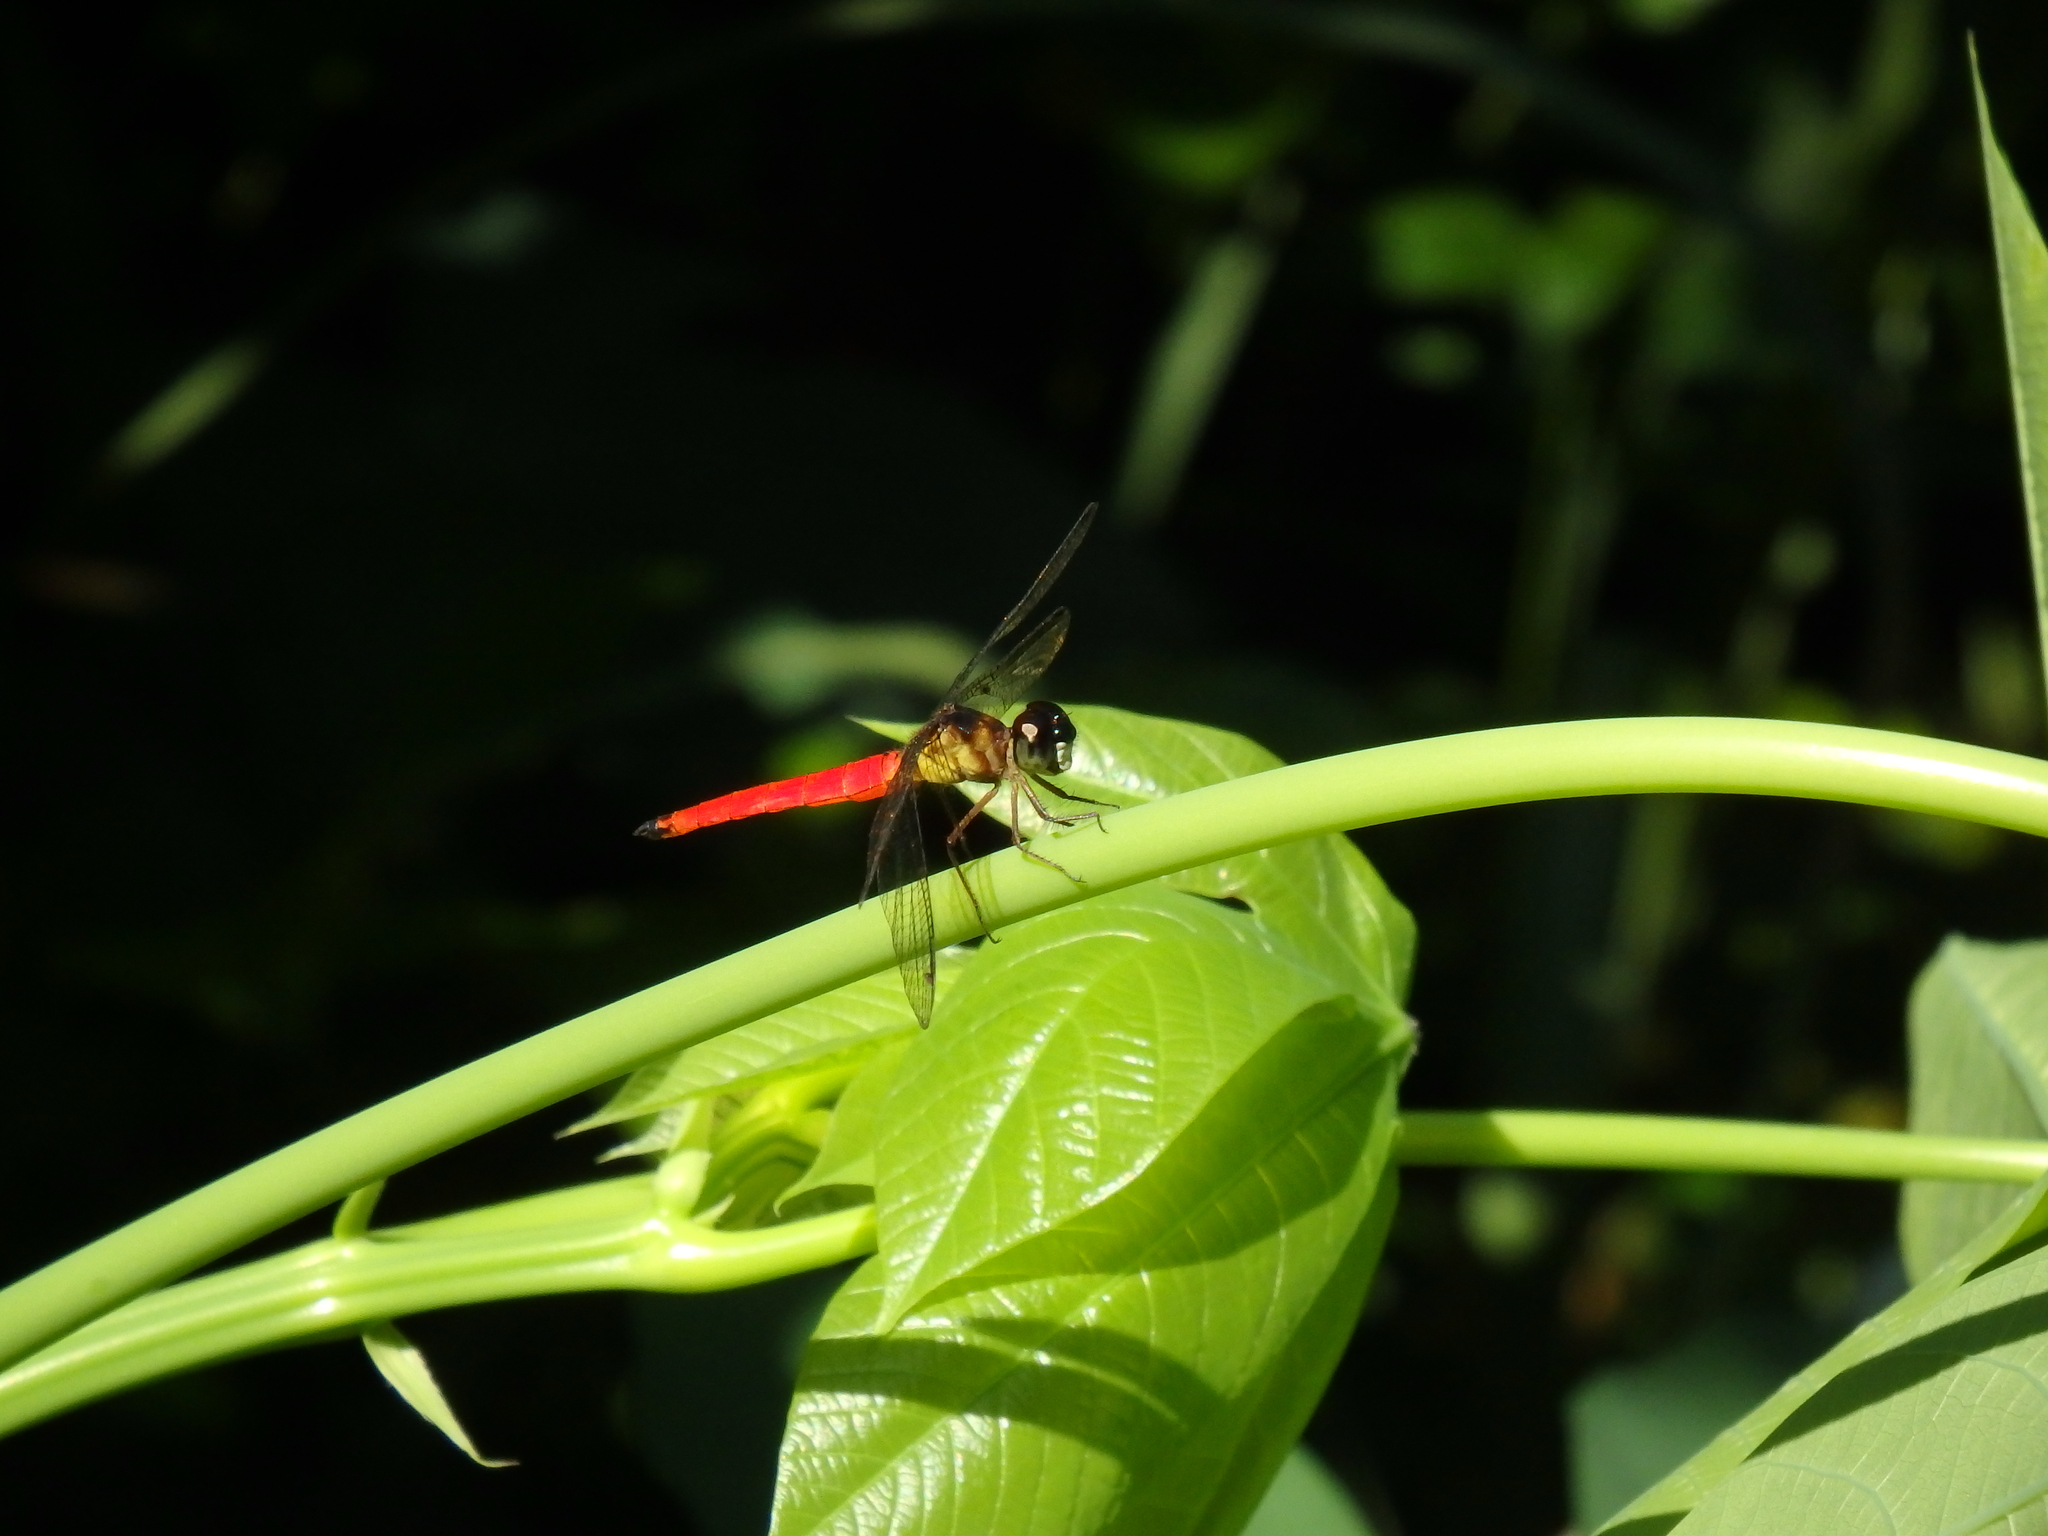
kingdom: Animalia
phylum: Arthropoda
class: Insecta
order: Odonata
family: Libellulidae
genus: Orchithemis
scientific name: Orchithemis pulcherrima
